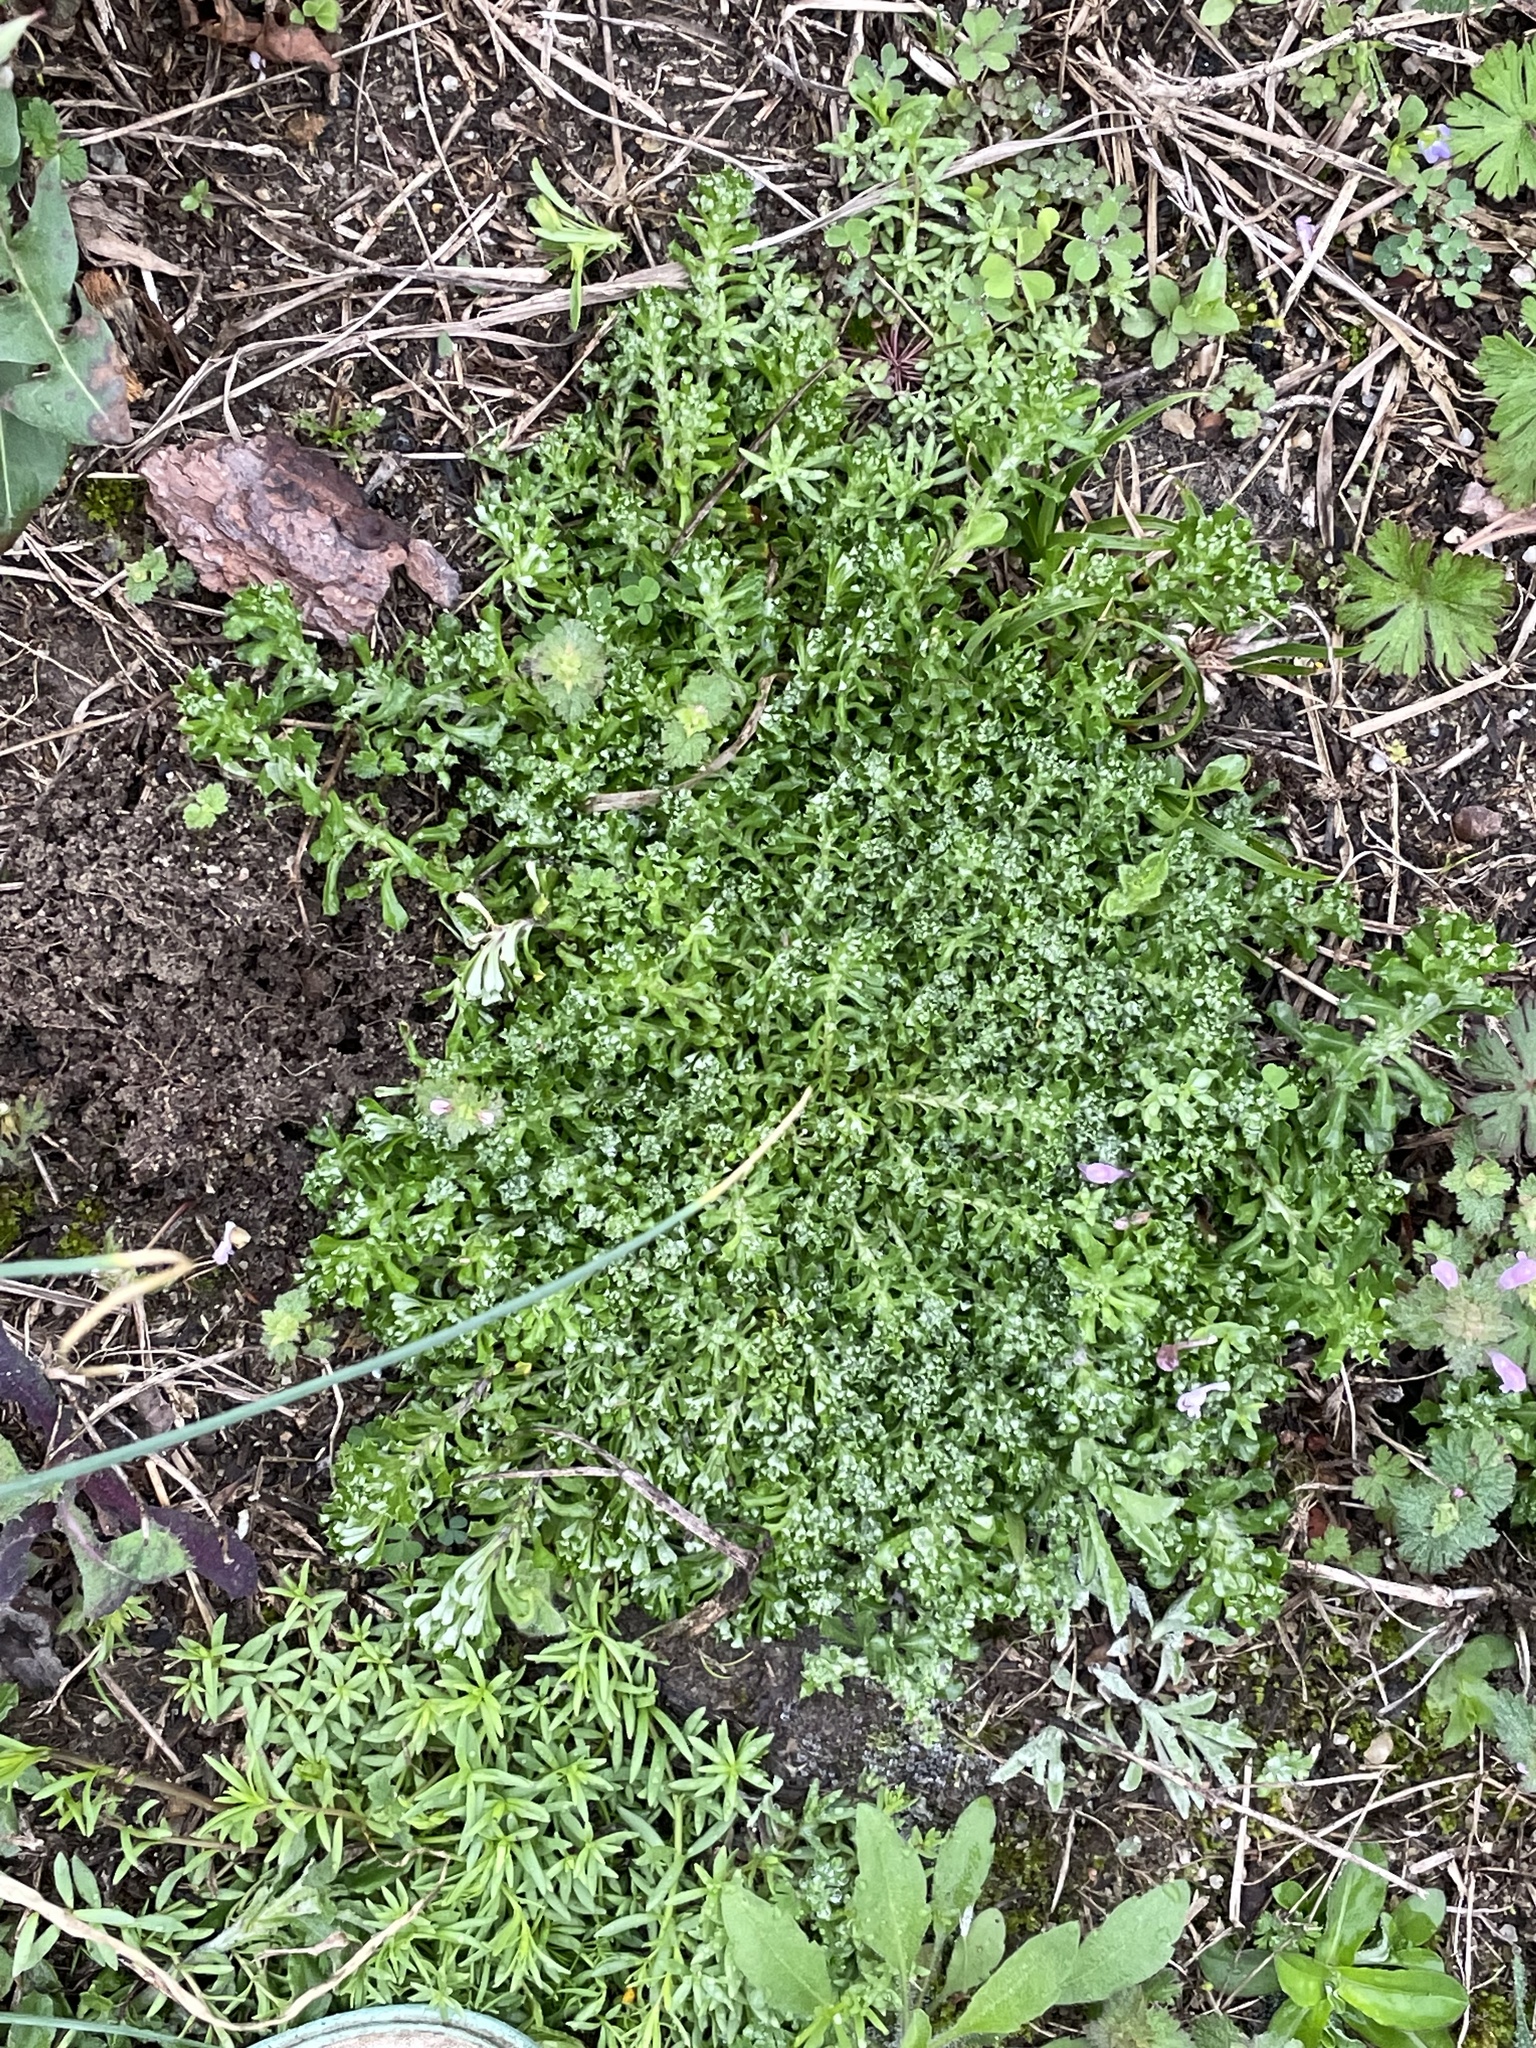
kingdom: Plantae
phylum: Tracheophyta
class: Magnoliopsida
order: Asterales
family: Asteraceae
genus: Facelis
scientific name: Facelis retusa
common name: Annual trampweed
